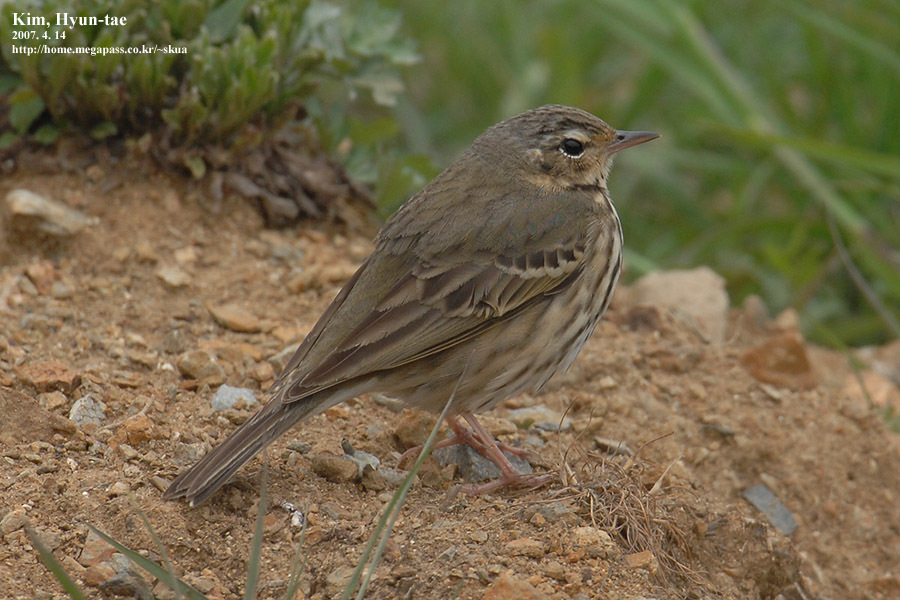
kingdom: Animalia
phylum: Chordata
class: Aves
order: Passeriformes
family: Motacillidae
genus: Anthus
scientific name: Anthus hodgsoni
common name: Olive-backed pipit
